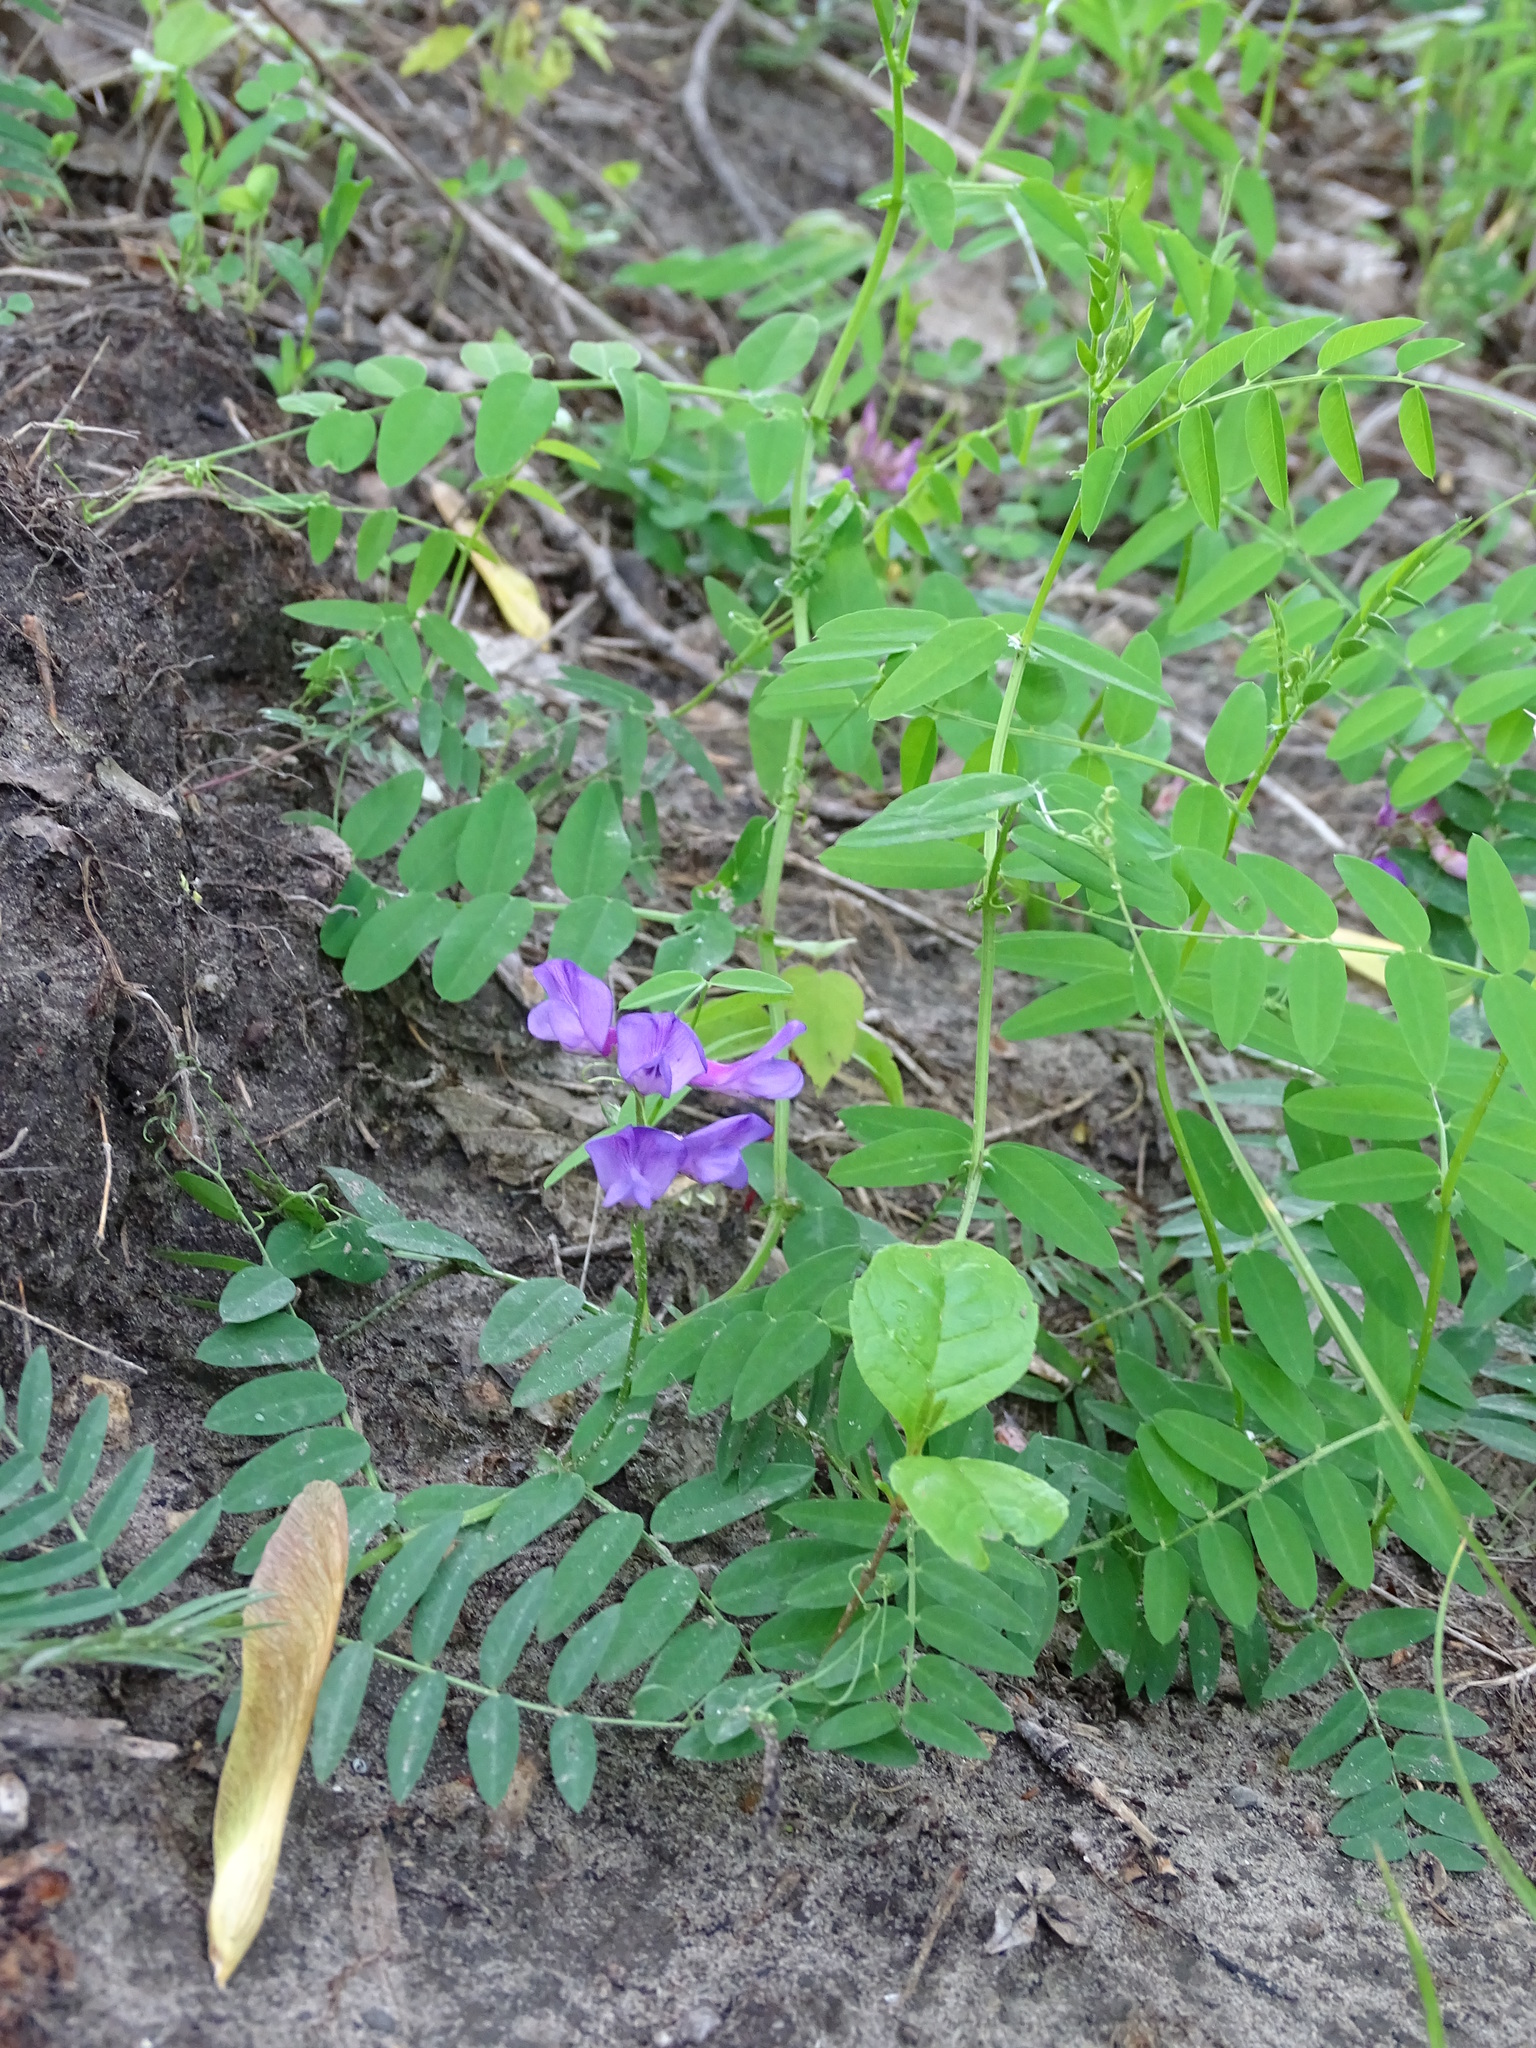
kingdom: Plantae
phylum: Tracheophyta
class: Magnoliopsida
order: Fabales
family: Fabaceae
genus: Vicia
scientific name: Vicia americana
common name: American vetch
